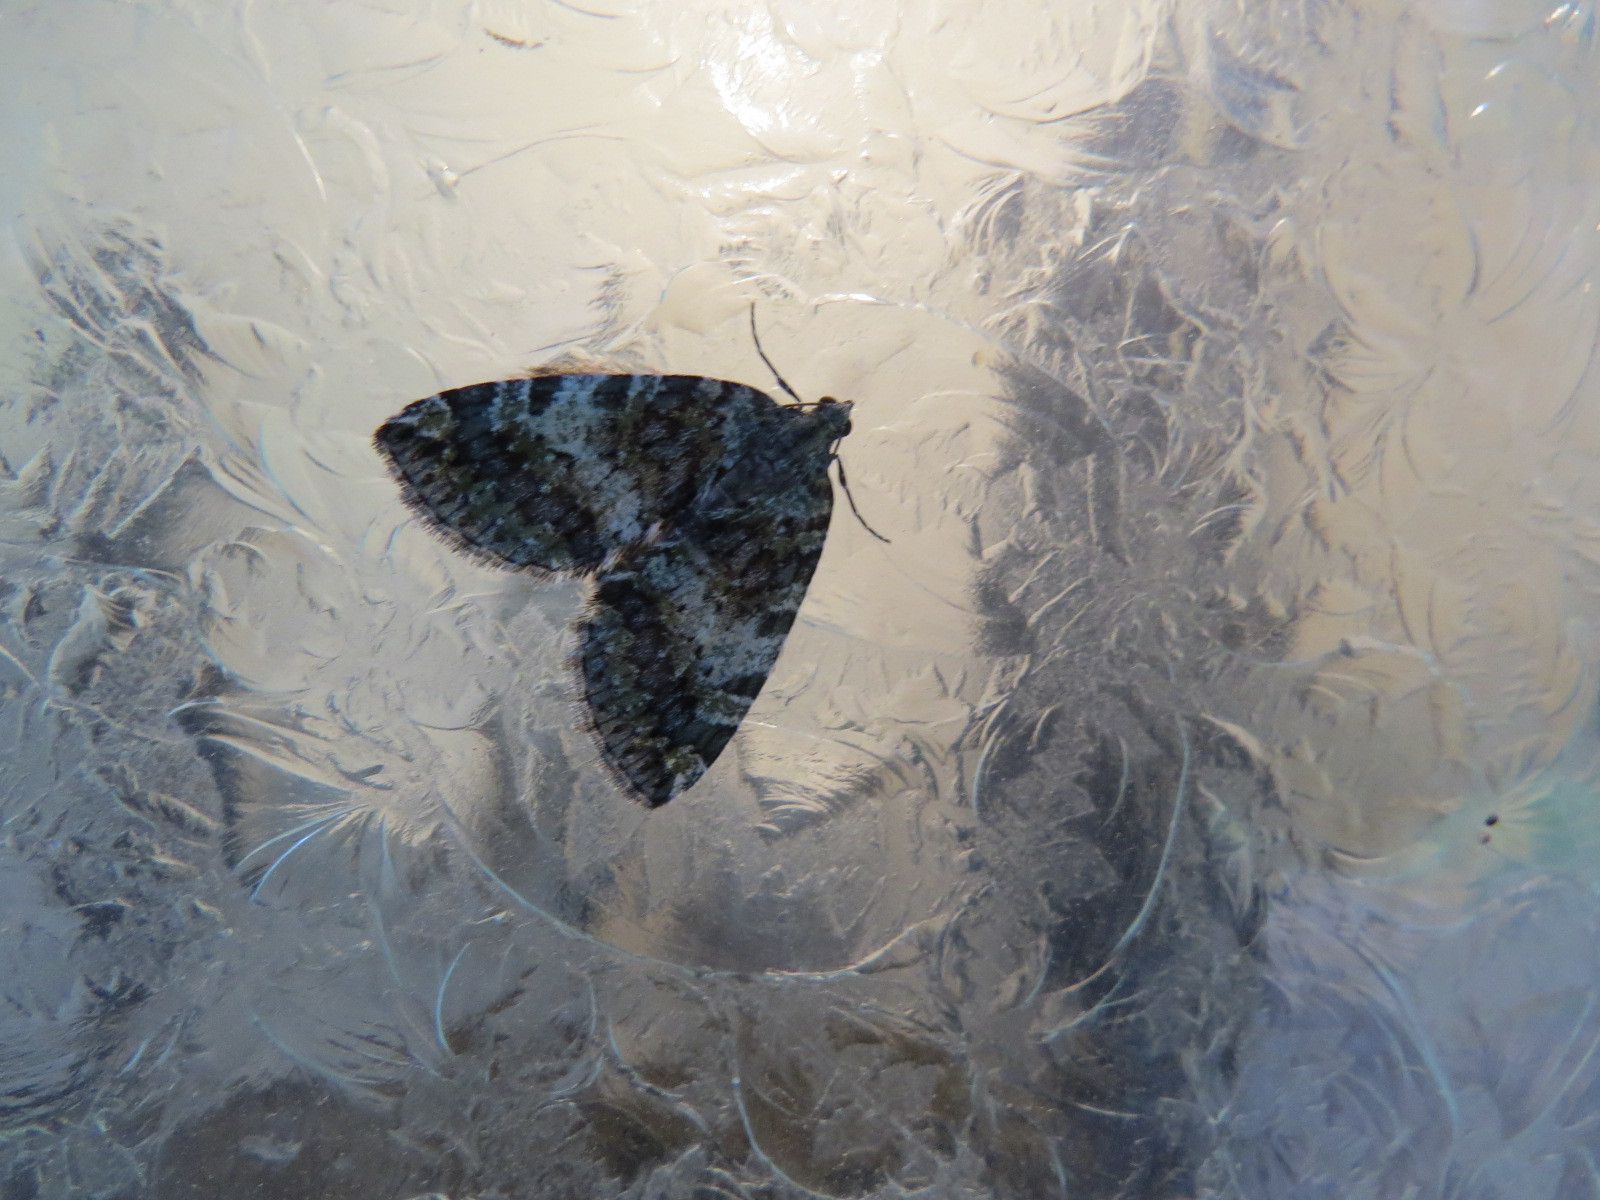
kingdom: Animalia
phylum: Arthropoda
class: Insecta
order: Lepidoptera
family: Geometridae
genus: Hydriomena
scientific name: Hydriomena nubilofasciata
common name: Oak winter highflier moth
